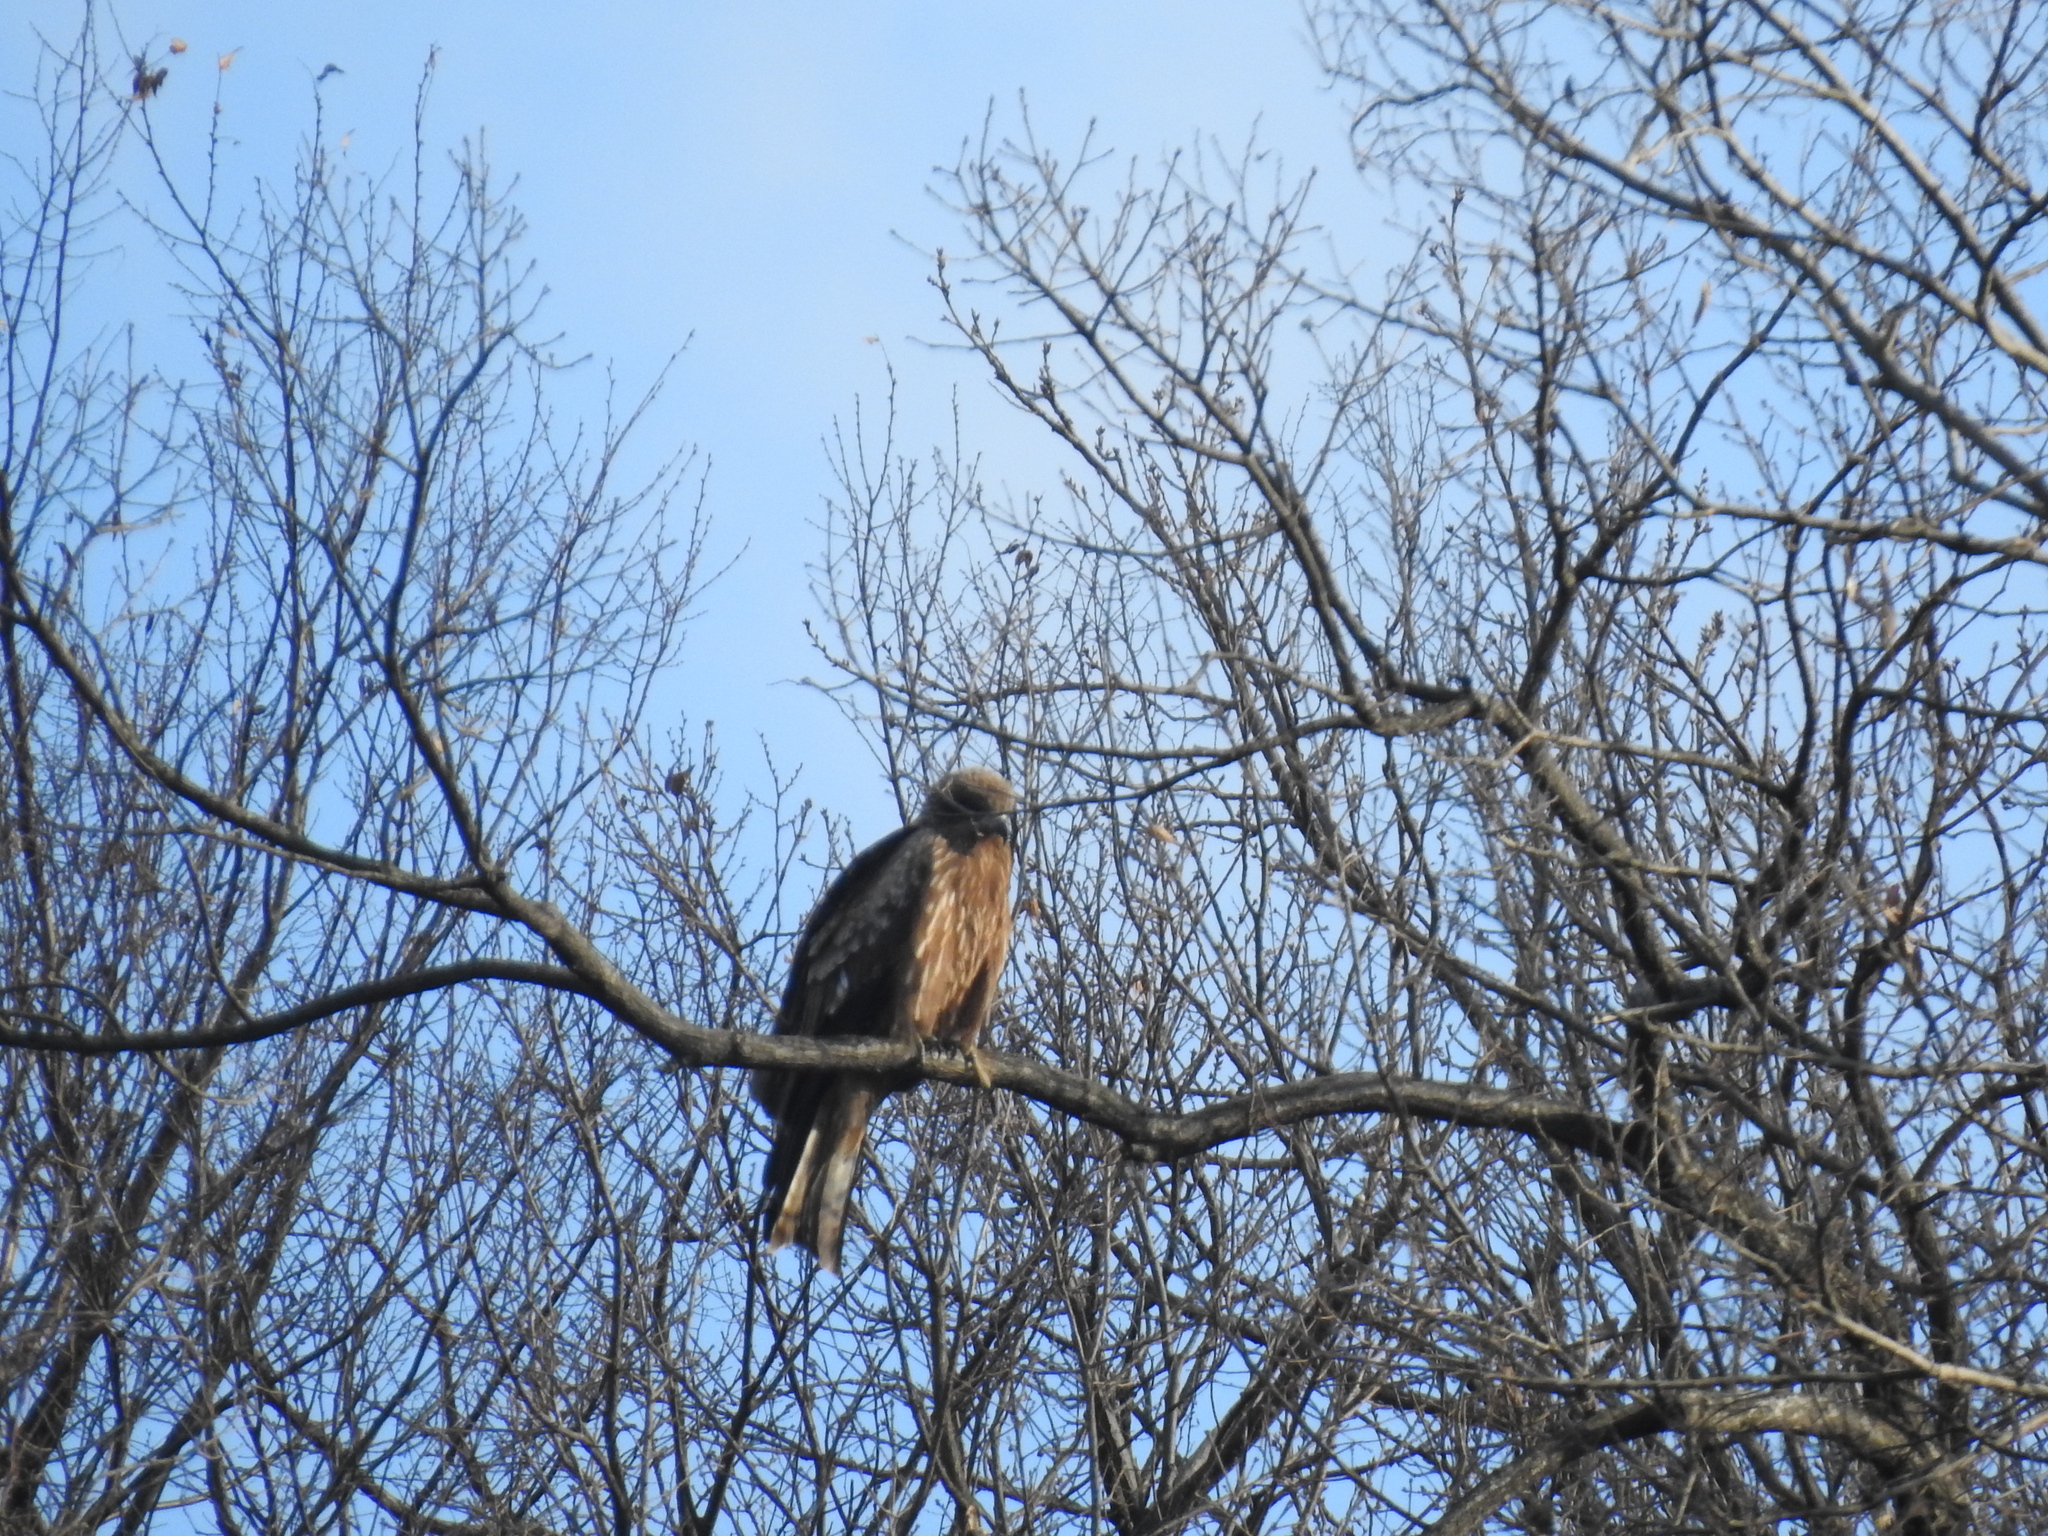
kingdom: Animalia
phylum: Chordata
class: Aves
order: Accipitriformes
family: Accipitridae
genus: Milvus
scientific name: Milvus migrans
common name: Black kite
